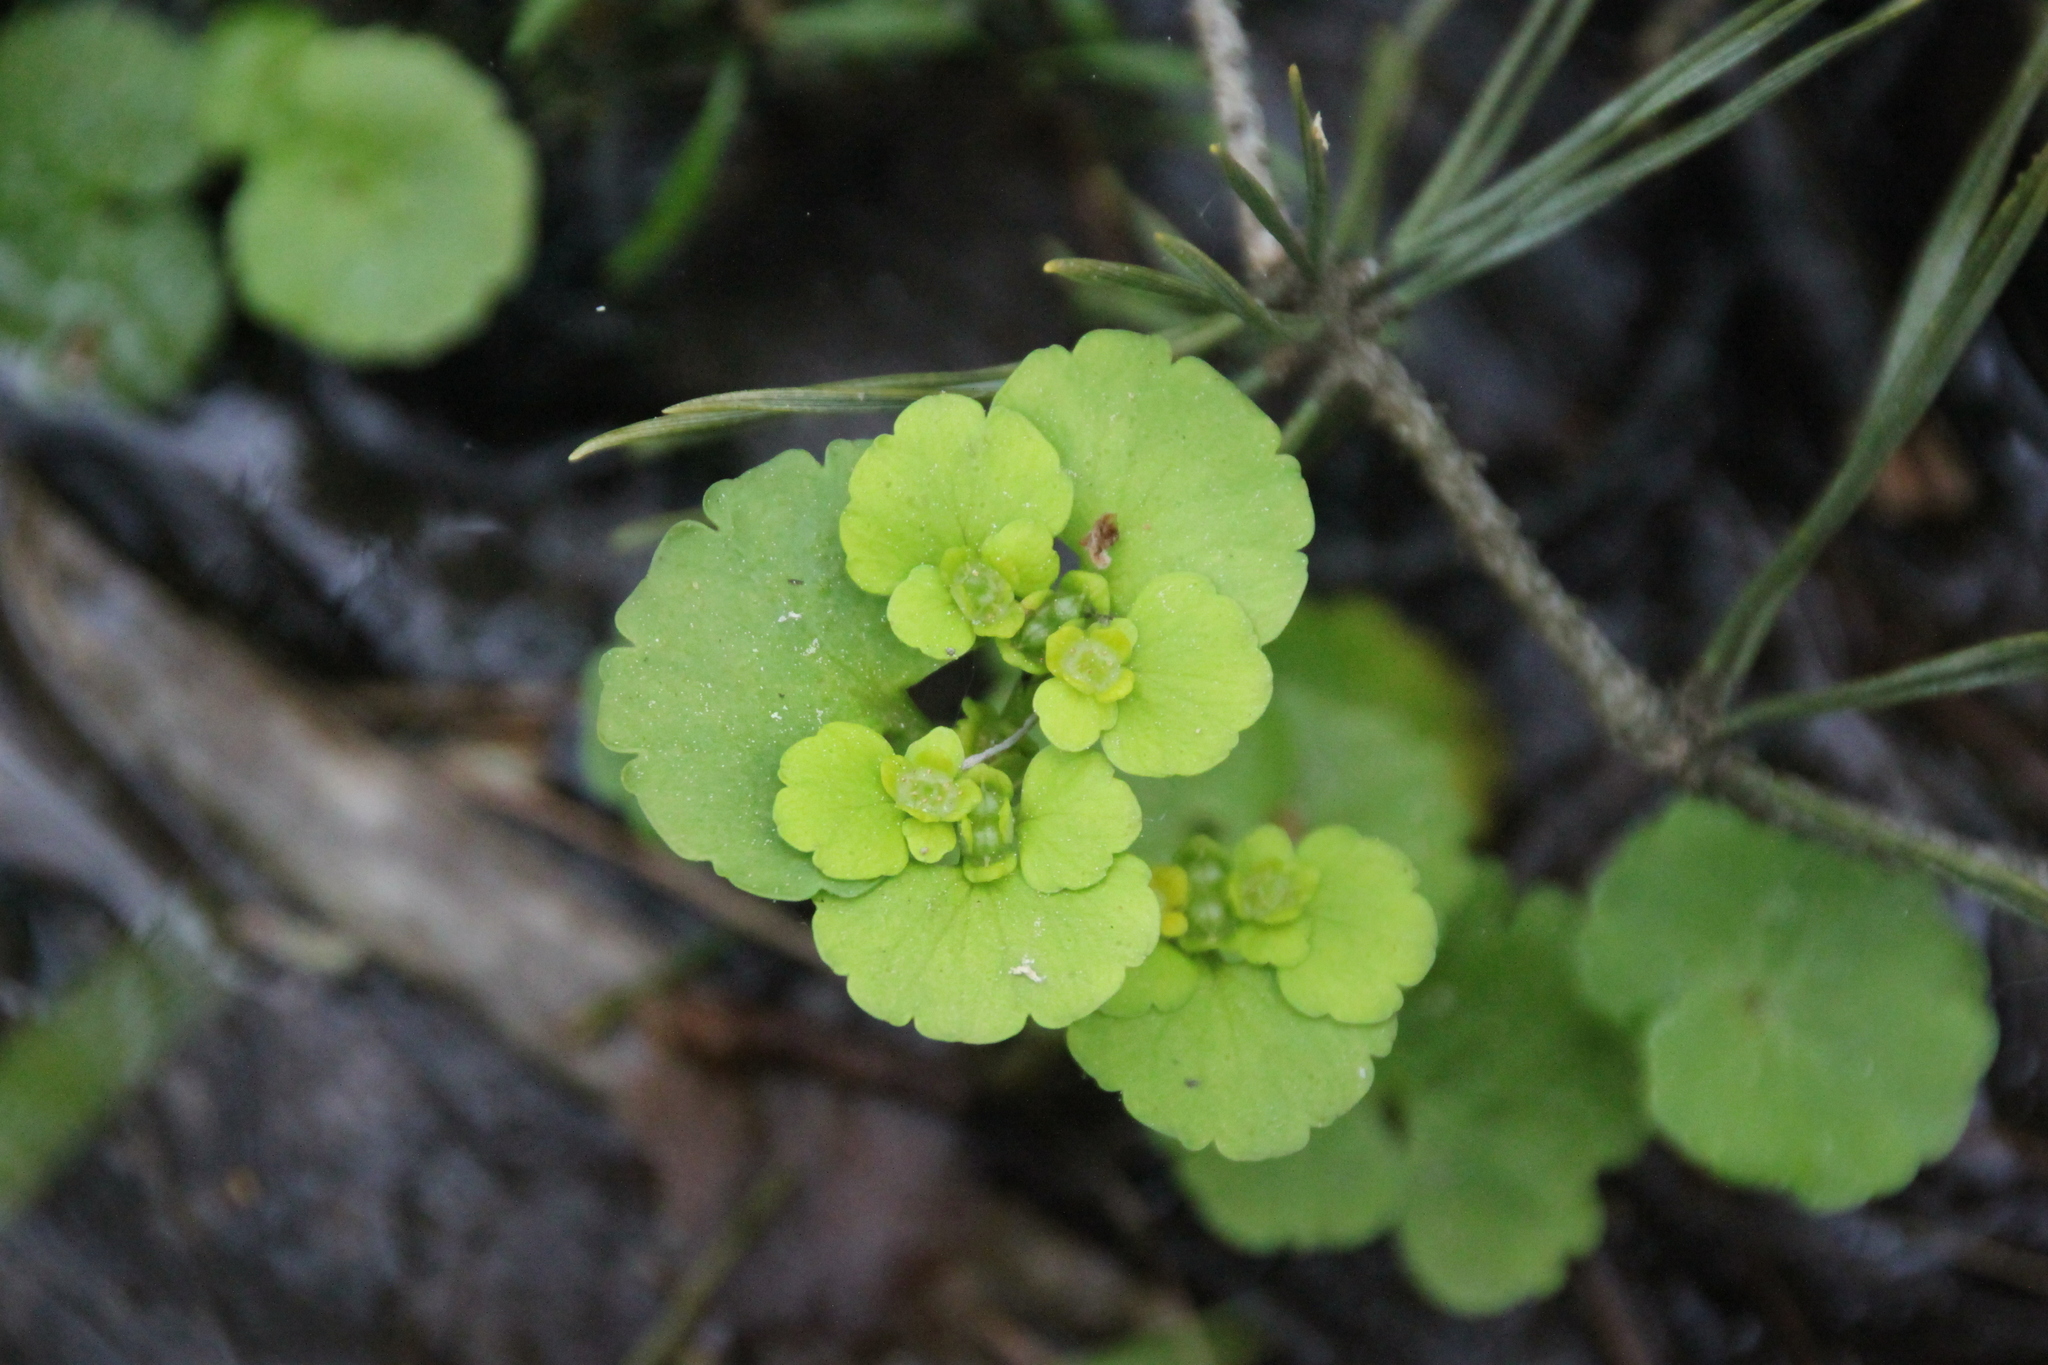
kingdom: Plantae
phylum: Tracheophyta
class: Magnoliopsida
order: Saxifragales
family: Saxifragaceae
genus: Chrysosplenium
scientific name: Chrysosplenium alternifolium
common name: Alternate-leaved golden-saxifrage
